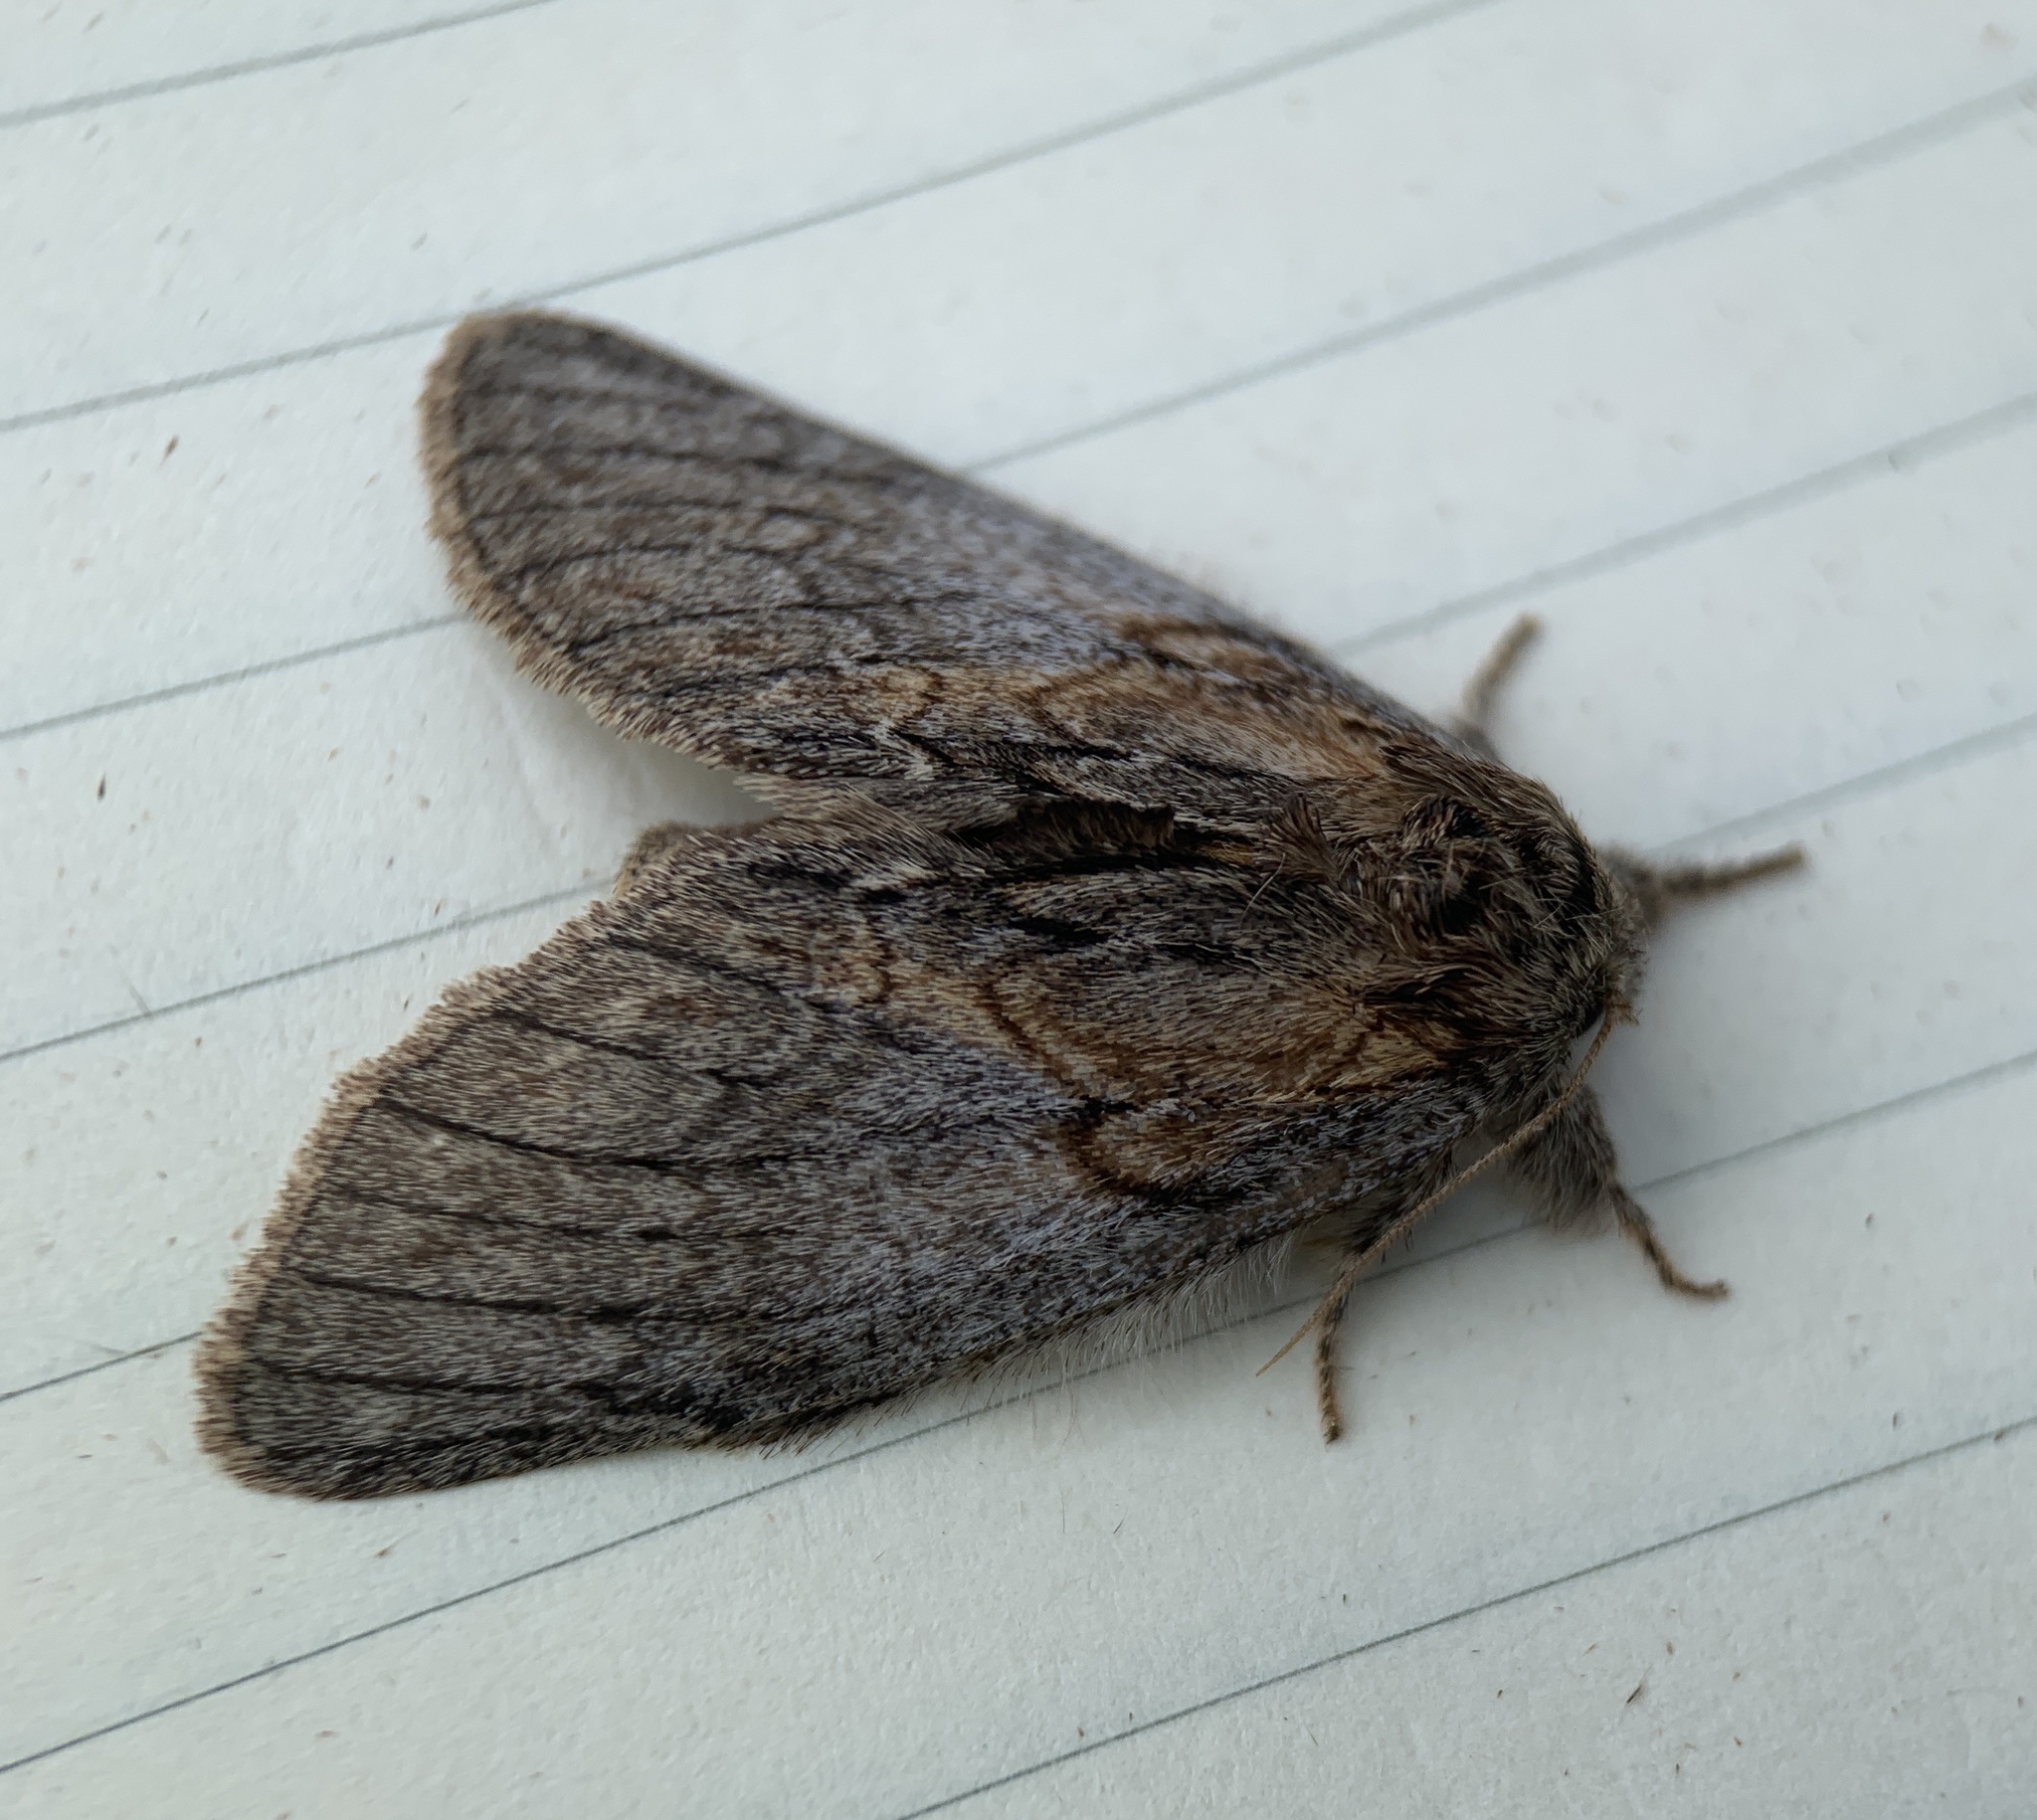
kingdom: Animalia
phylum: Arthropoda
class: Insecta
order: Lepidoptera
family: Notodontidae
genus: Peridea
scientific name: Peridea basitriens
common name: Oval-based prominent
